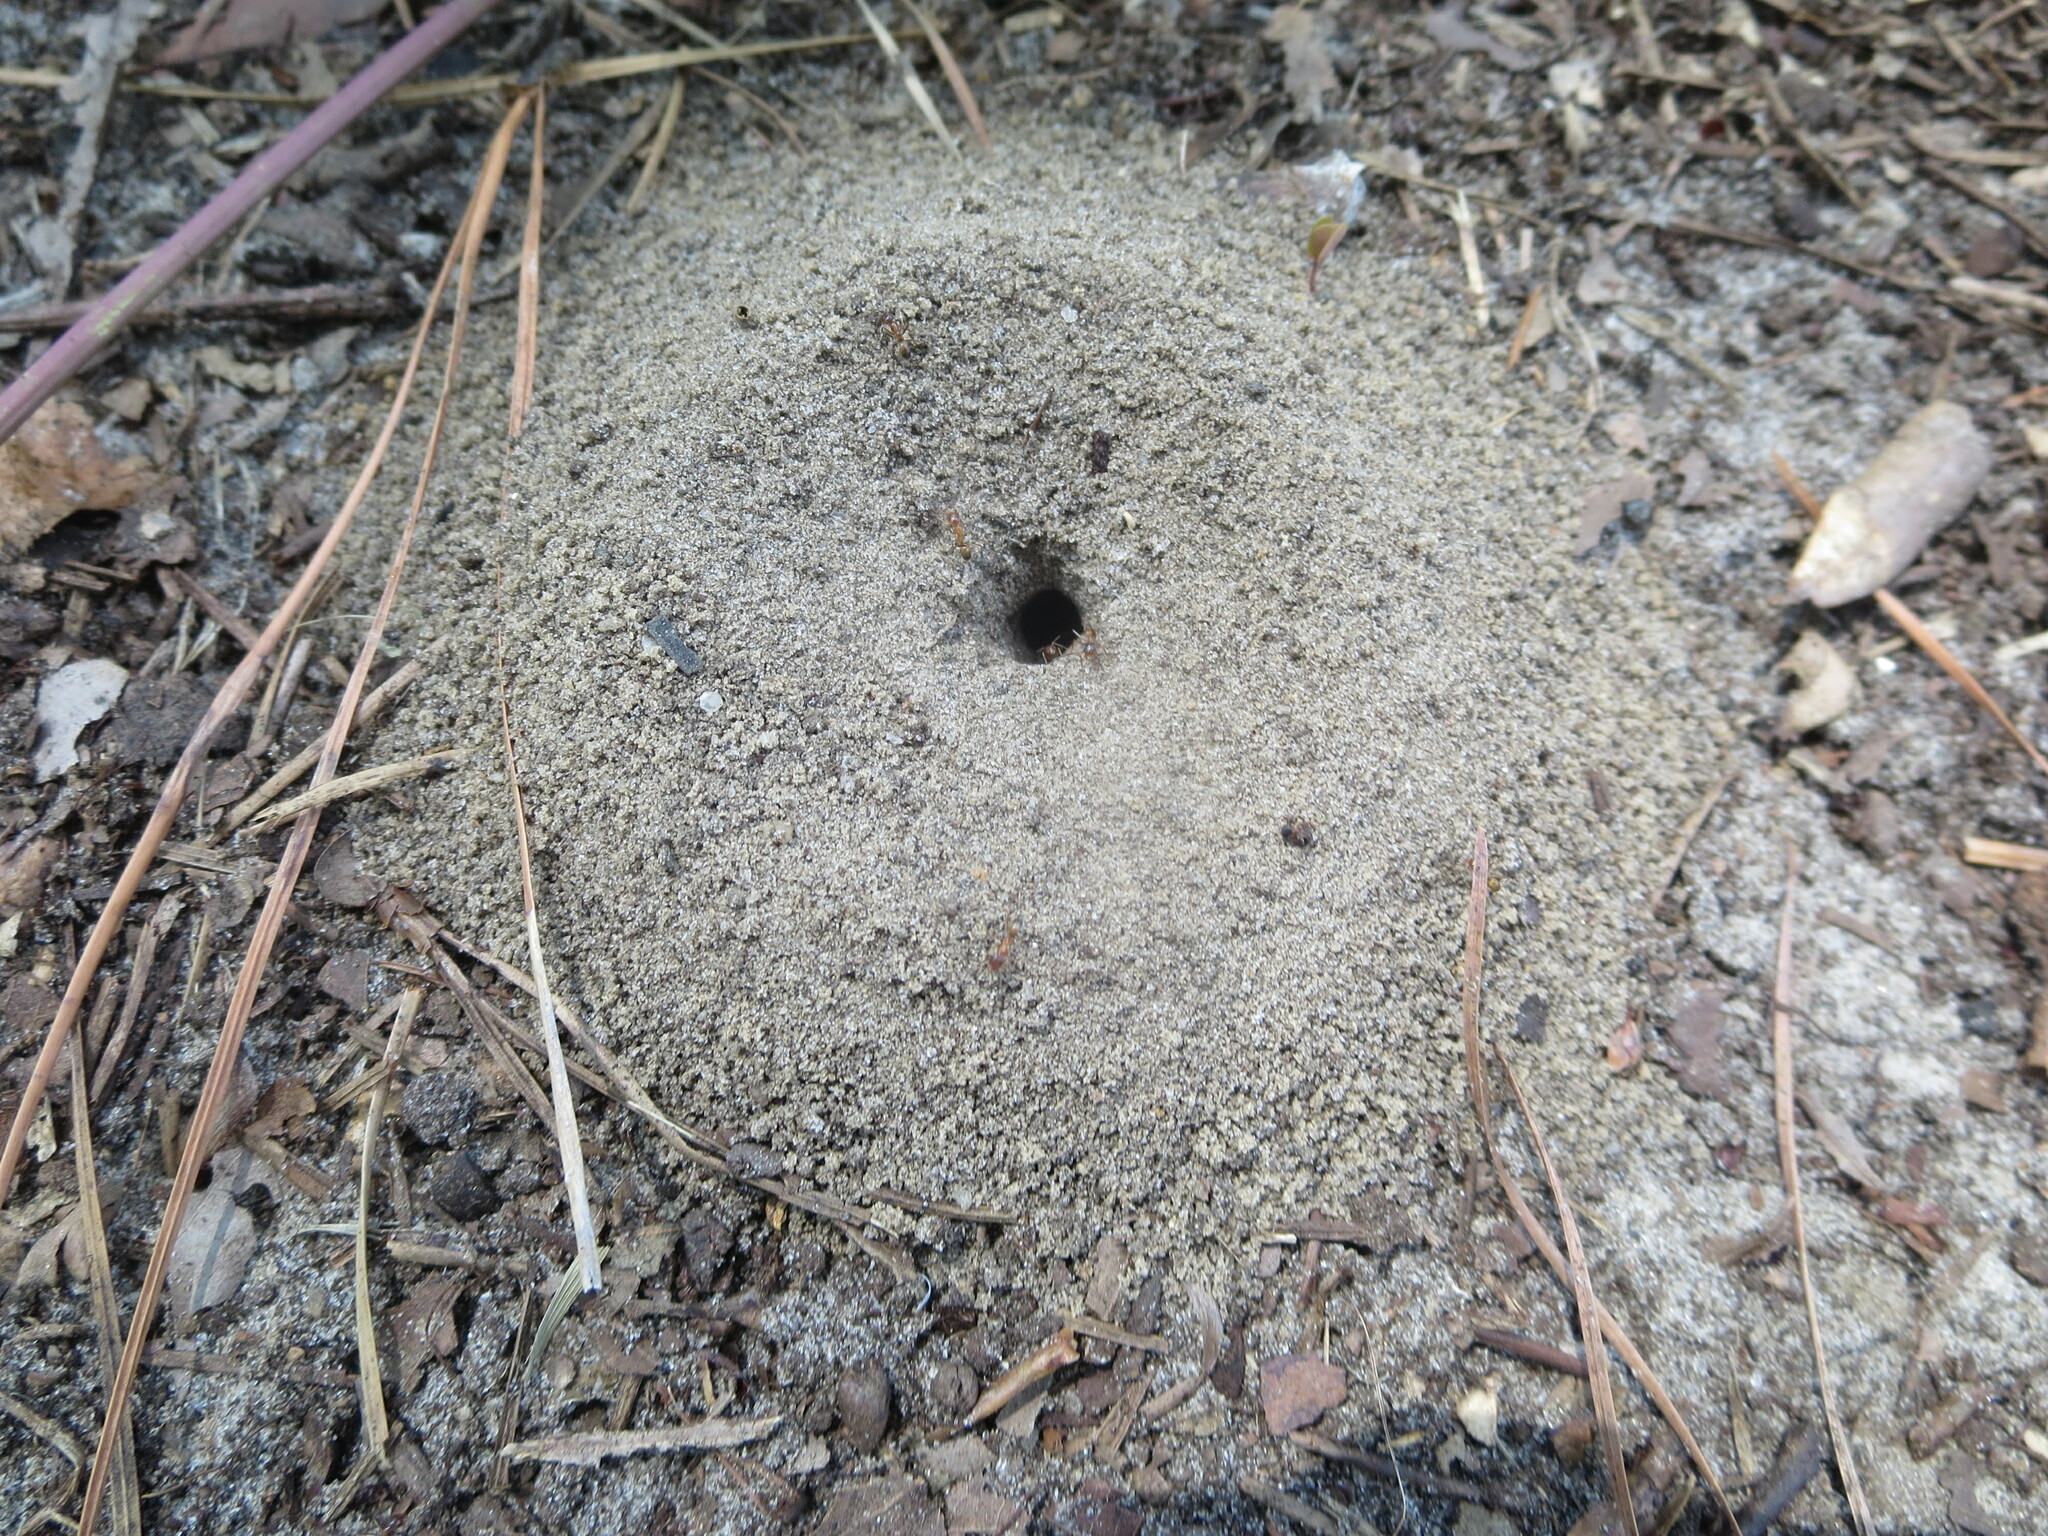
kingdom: Animalia
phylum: Arthropoda
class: Insecta
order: Hymenoptera
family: Formicidae
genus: Dorymyrmex
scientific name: Dorymyrmex bureni
